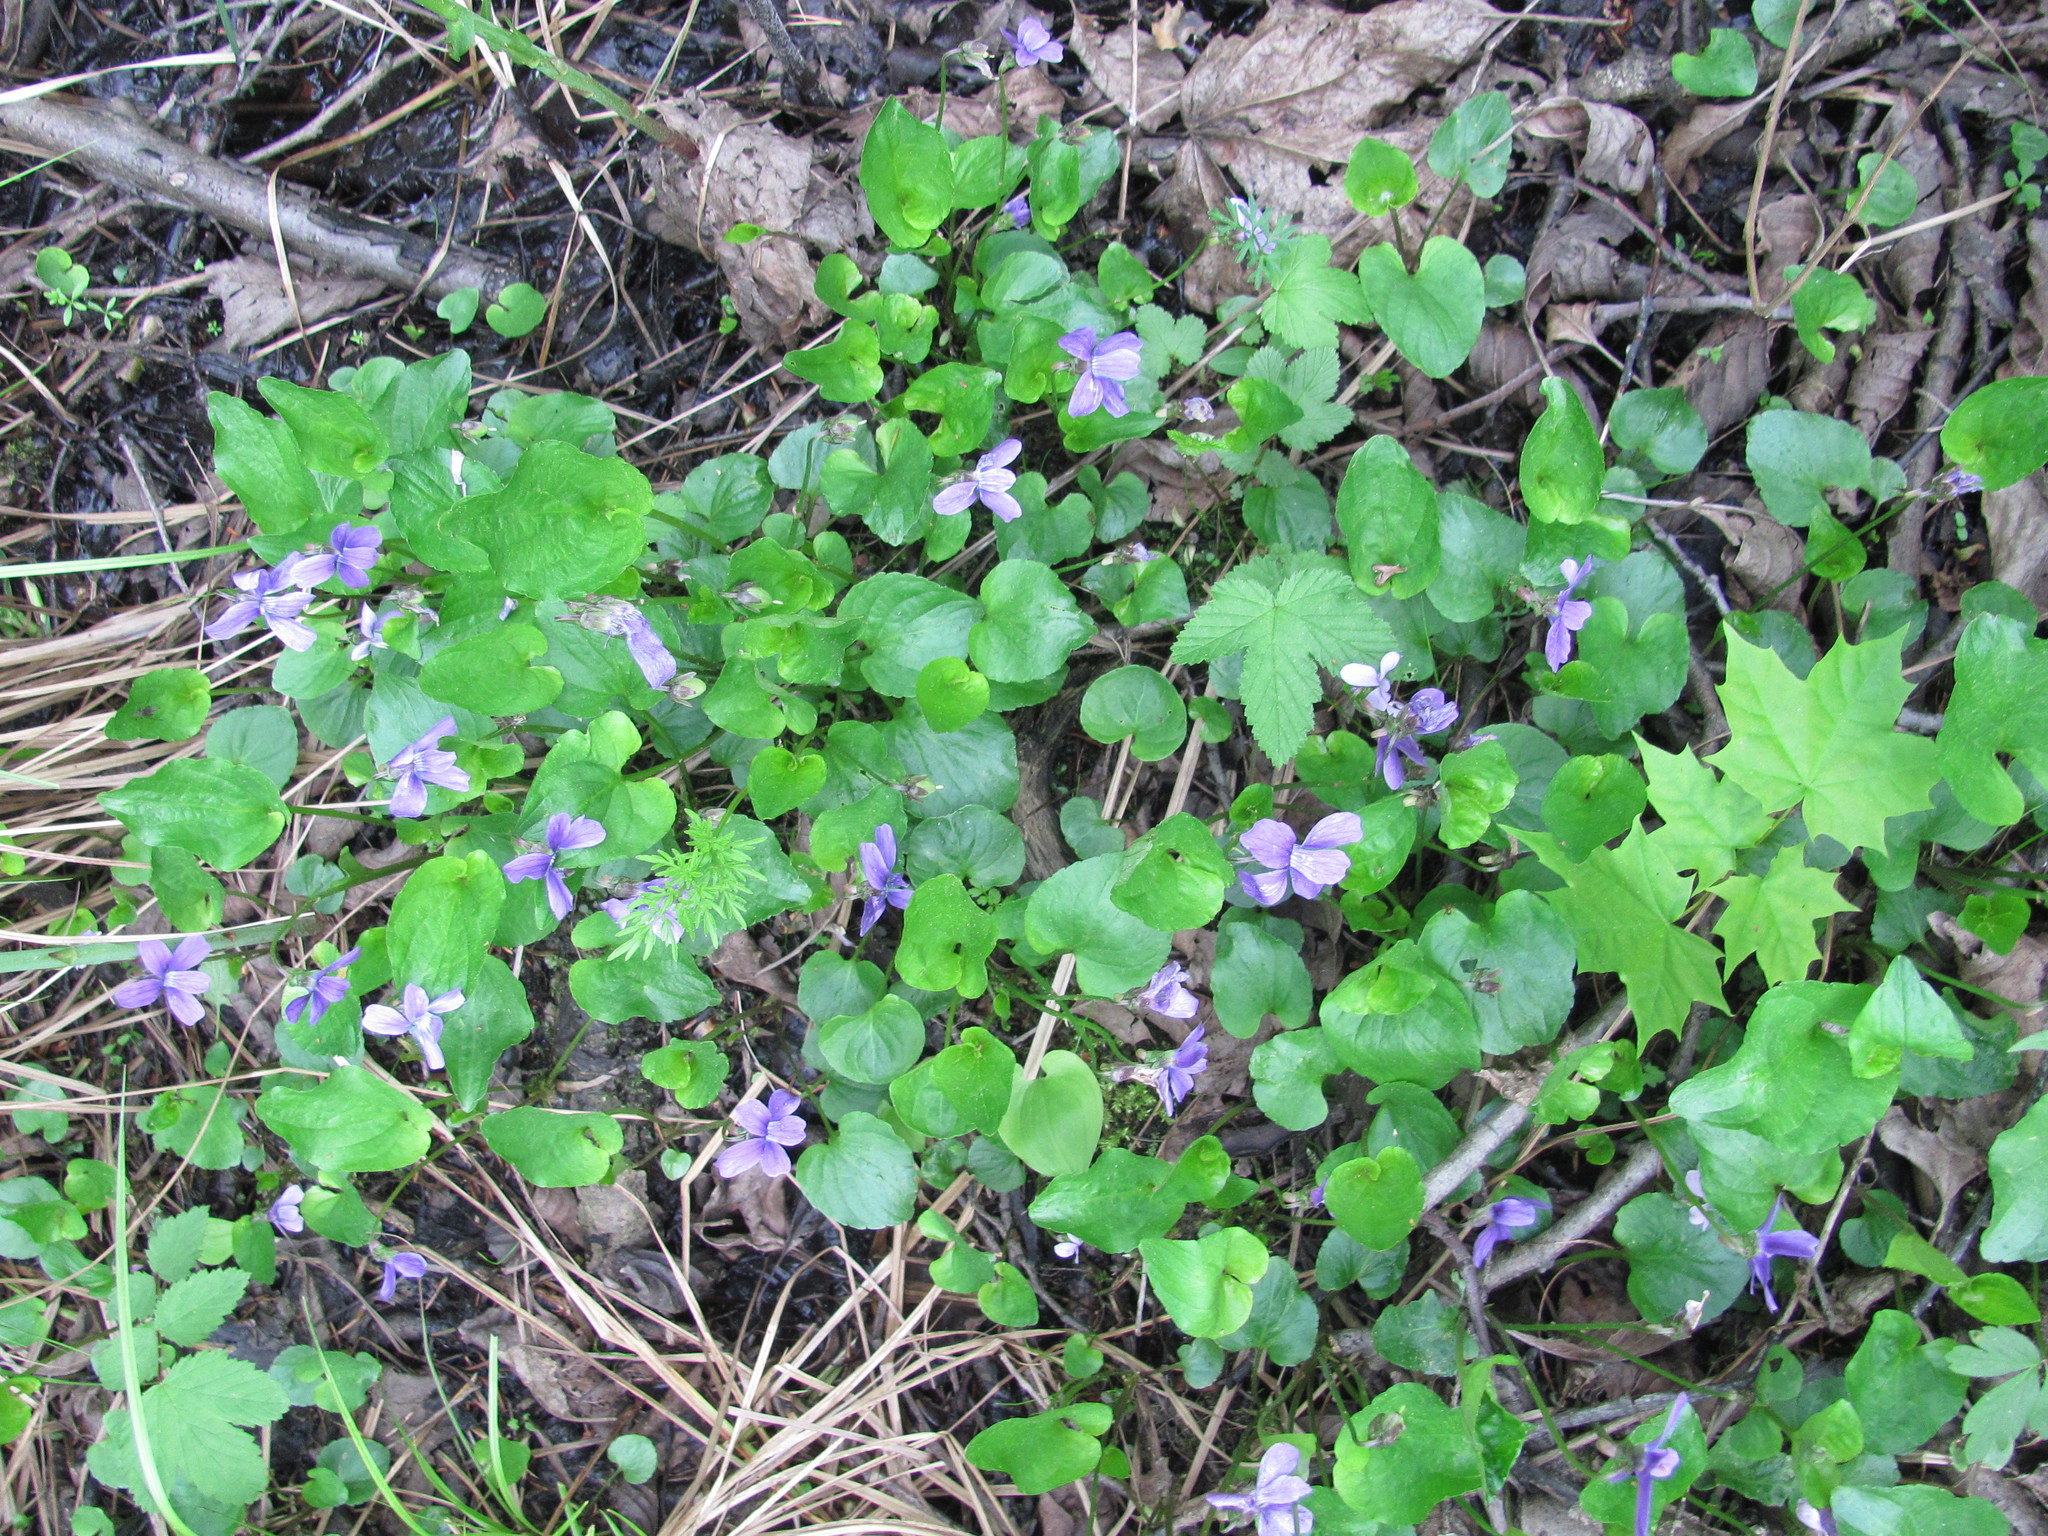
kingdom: Plantae
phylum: Tracheophyta
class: Magnoliopsida
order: Malpighiales
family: Violaceae
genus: Viola
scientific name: Viola uliginosa
